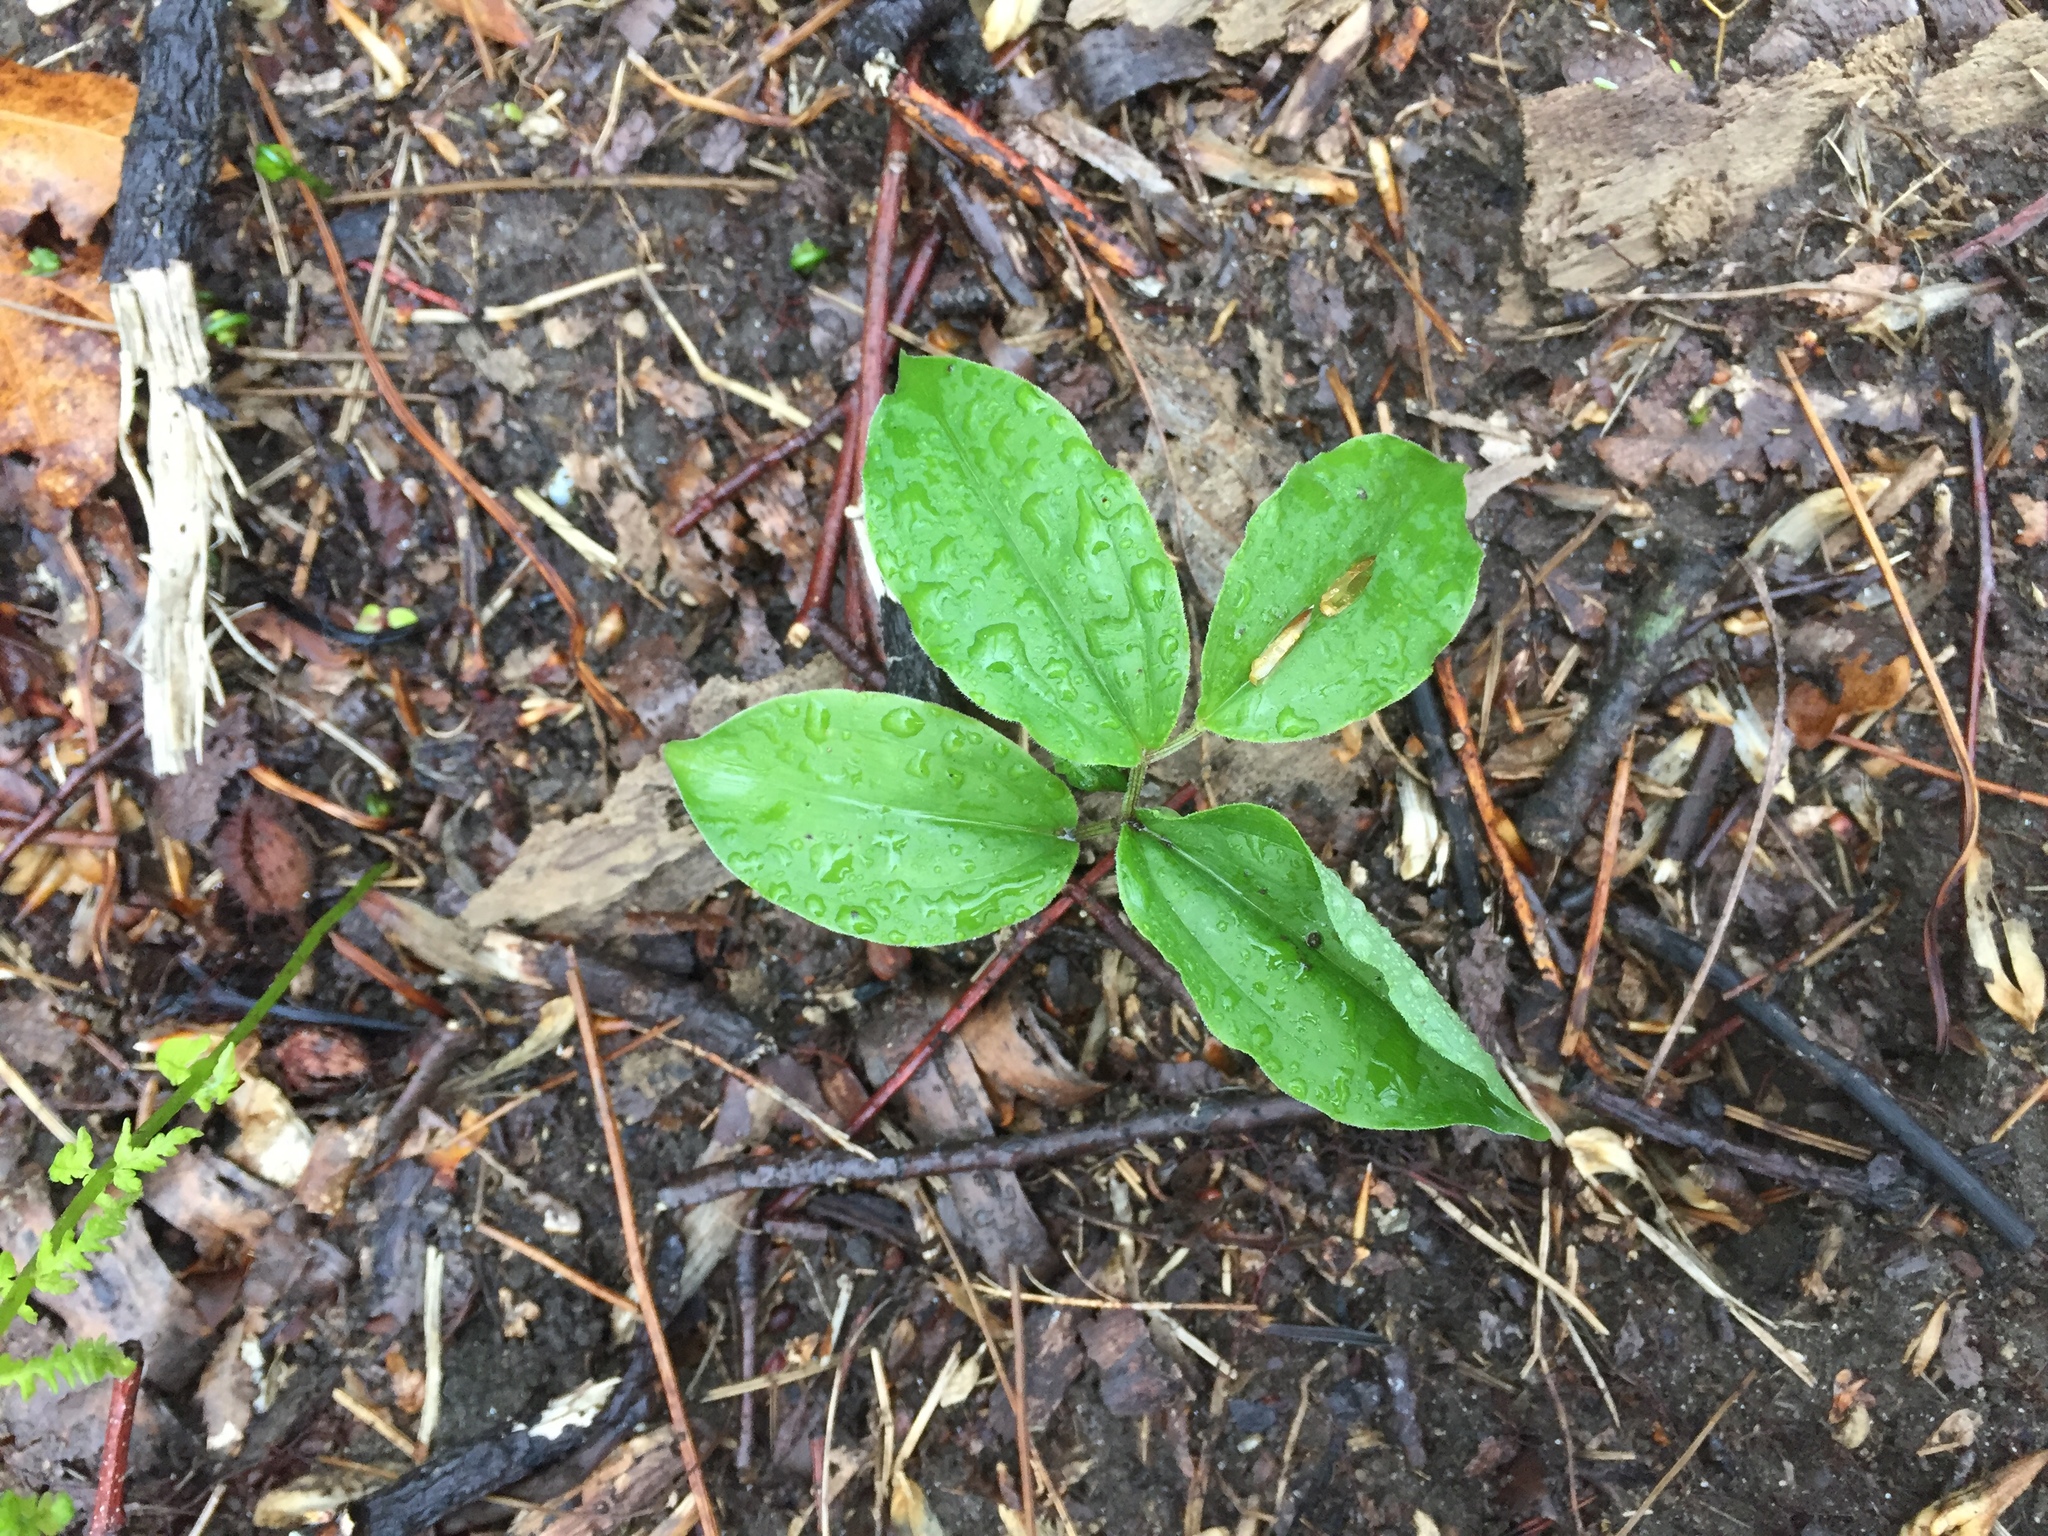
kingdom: Plantae
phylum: Tracheophyta
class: Liliopsida
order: Asparagales
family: Asparagaceae
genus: Maianthemum
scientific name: Maianthemum racemosum
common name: False spikenard
